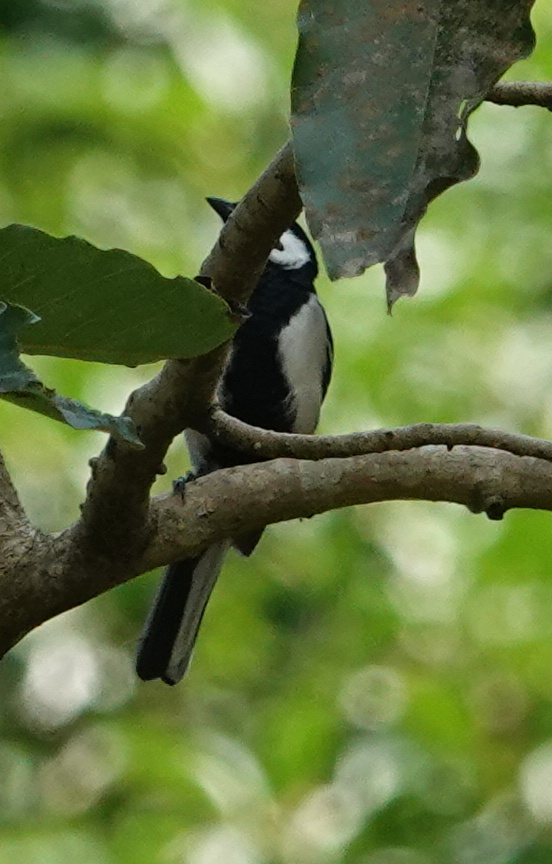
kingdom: Animalia
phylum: Chordata
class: Aves
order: Passeriformes
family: Paridae
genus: Parus
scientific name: Parus cinereus
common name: Cinereous tit
